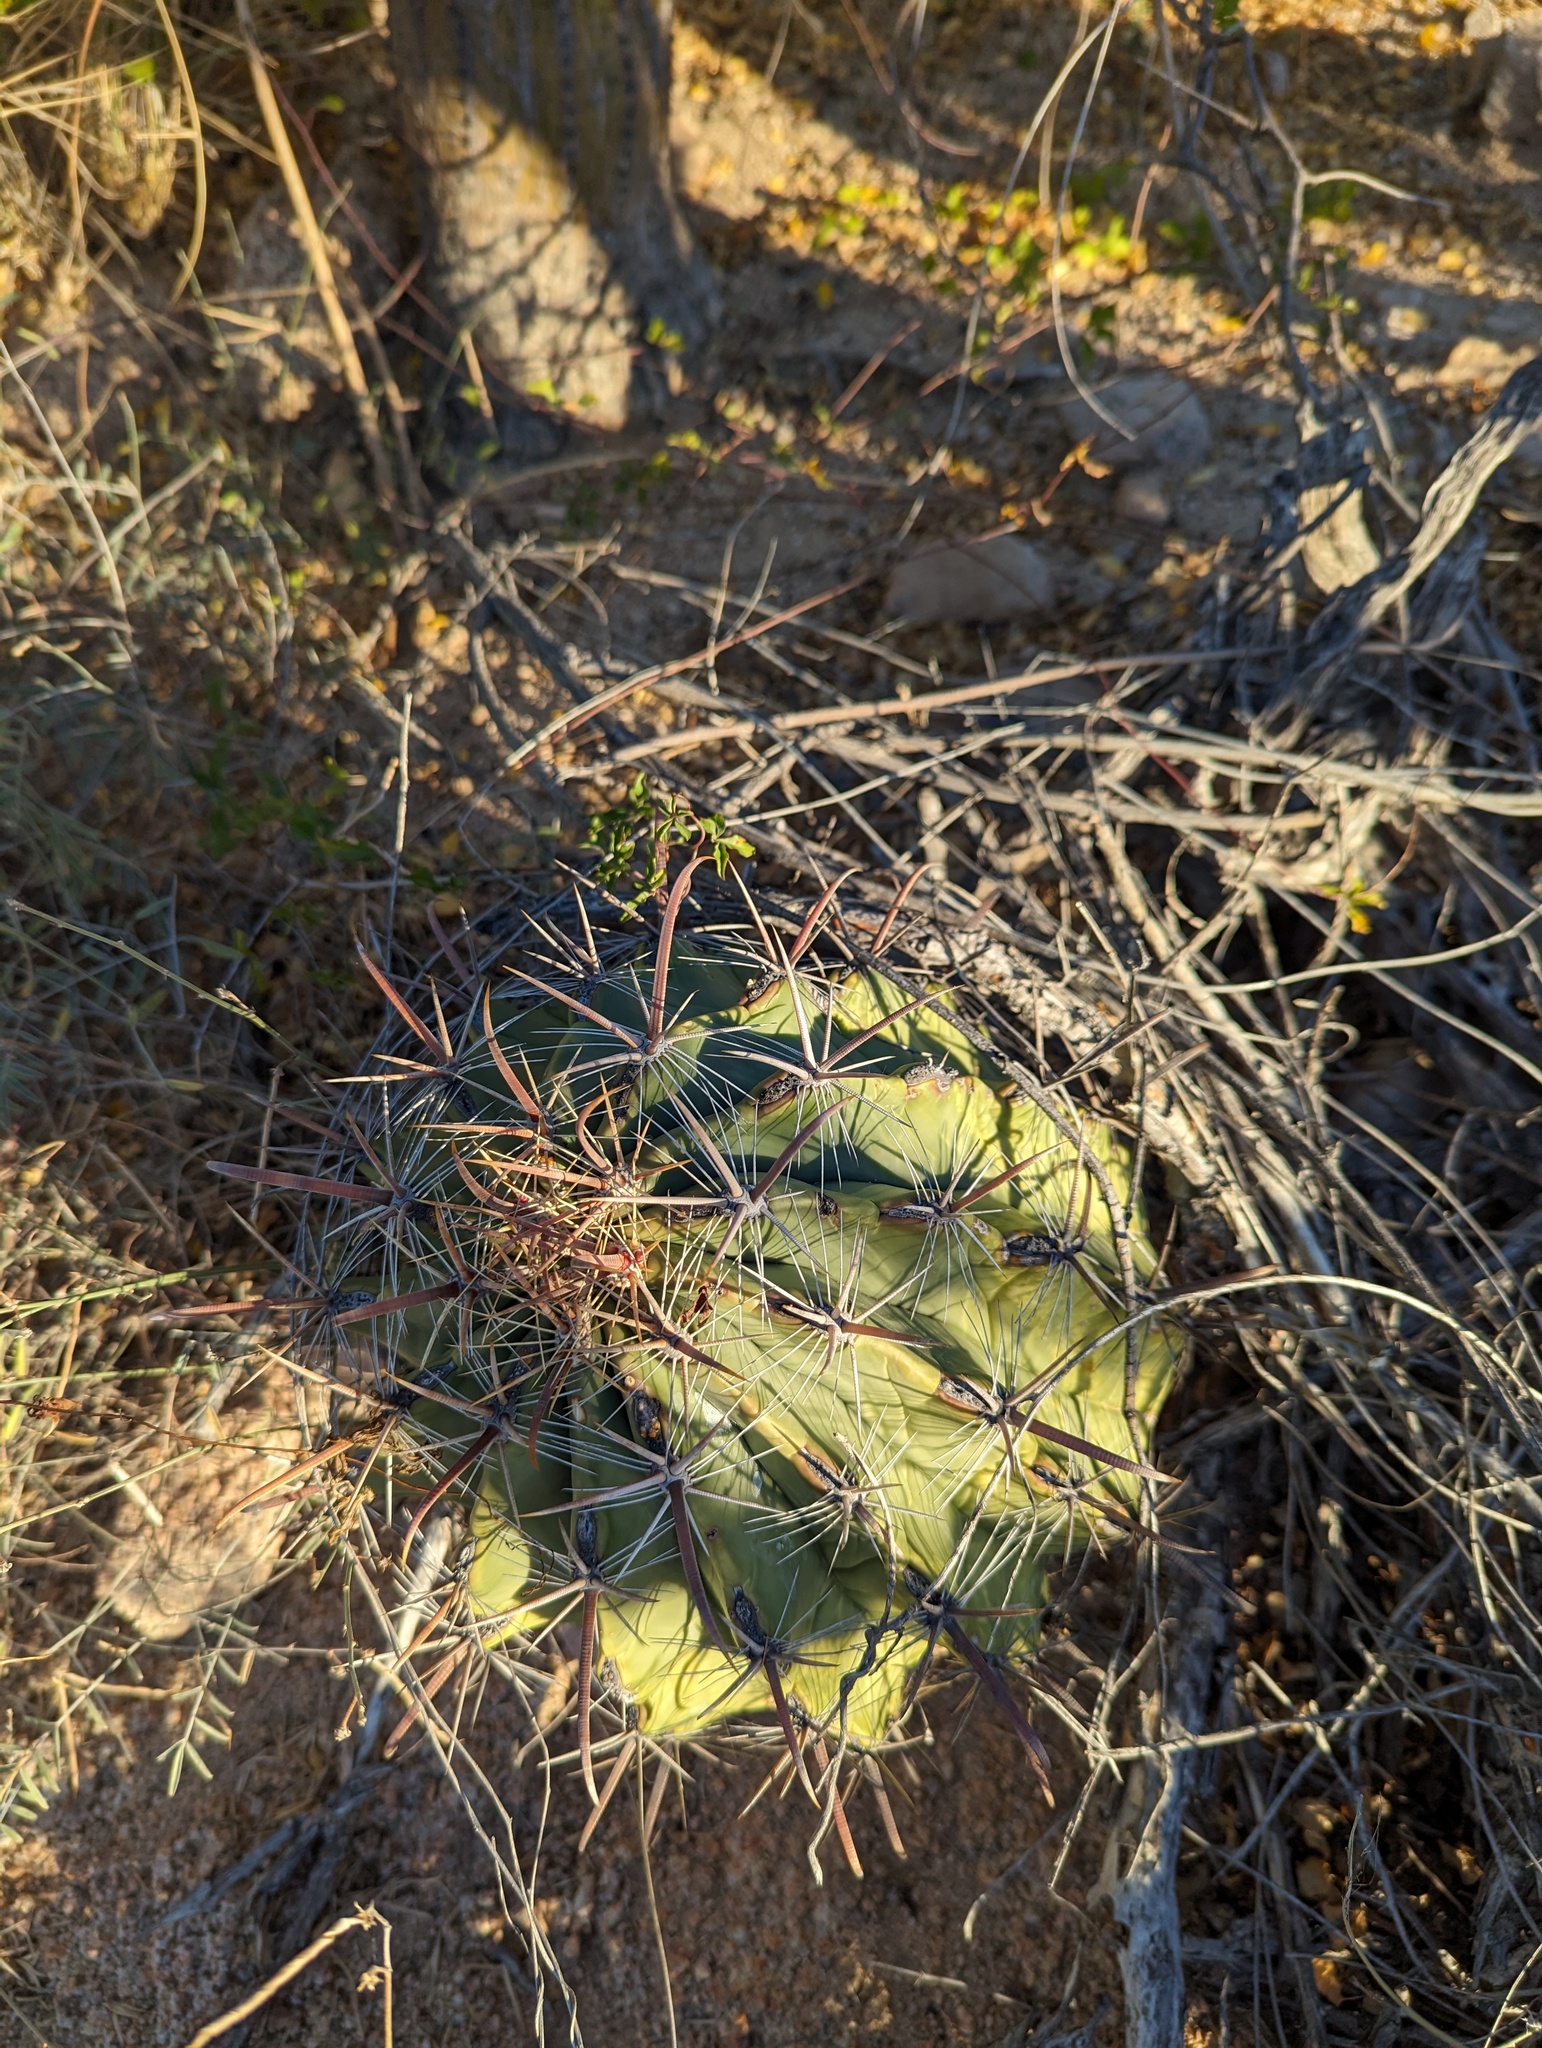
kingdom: Plantae
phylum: Tracheophyta
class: Magnoliopsida
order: Caryophyllales
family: Cactaceae
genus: Ferocactus
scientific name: Ferocactus townsendianus
